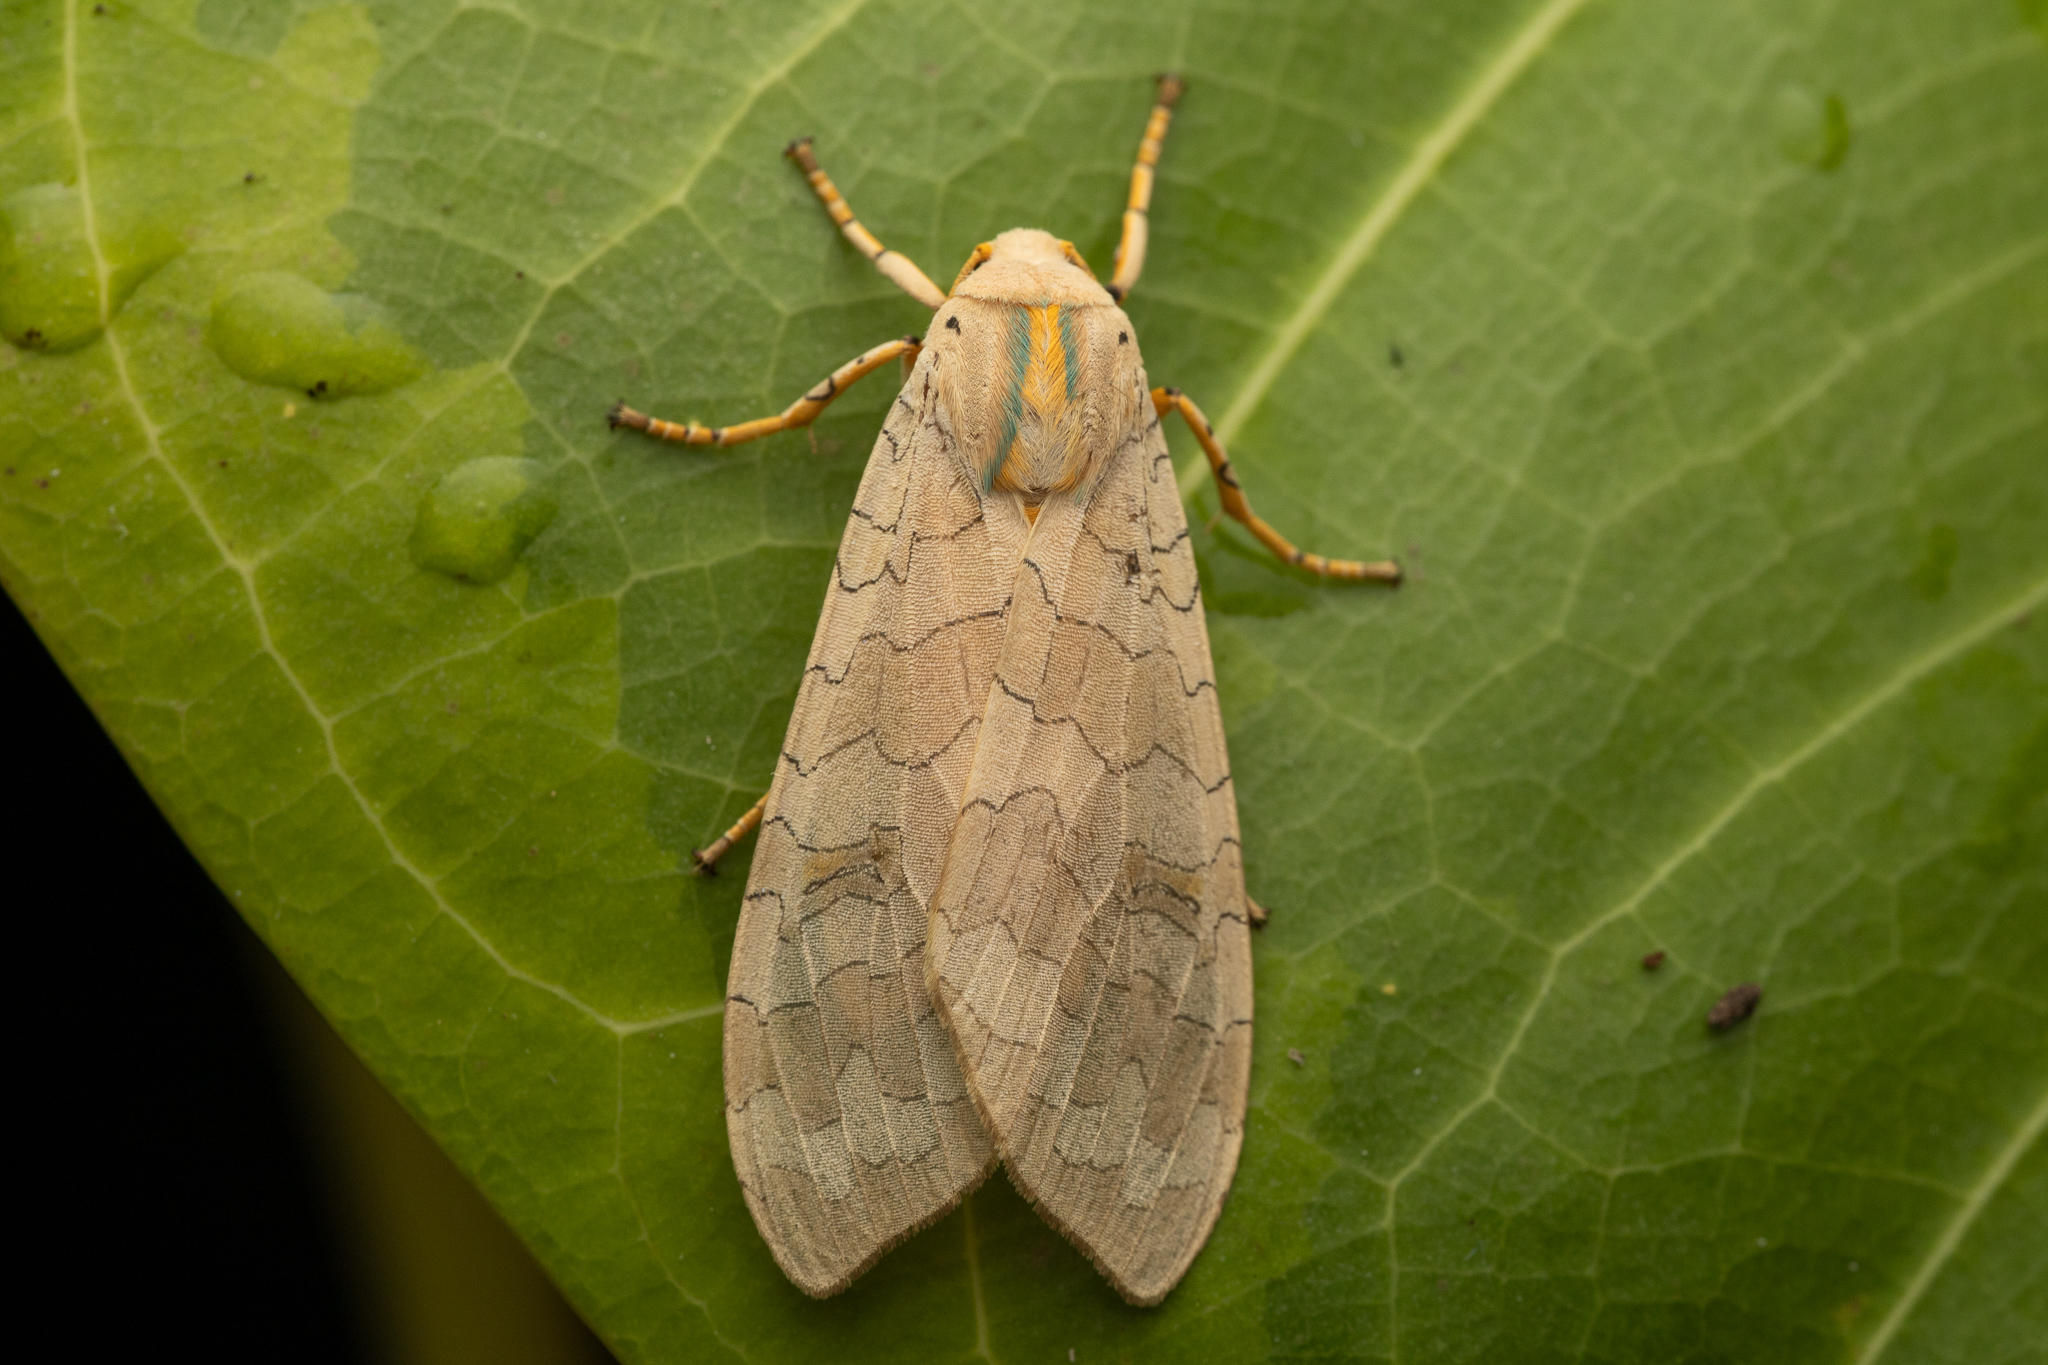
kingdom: Animalia
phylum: Arthropoda
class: Insecta
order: Lepidoptera
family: Erebidae
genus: Halysidota
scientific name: Halysidota
